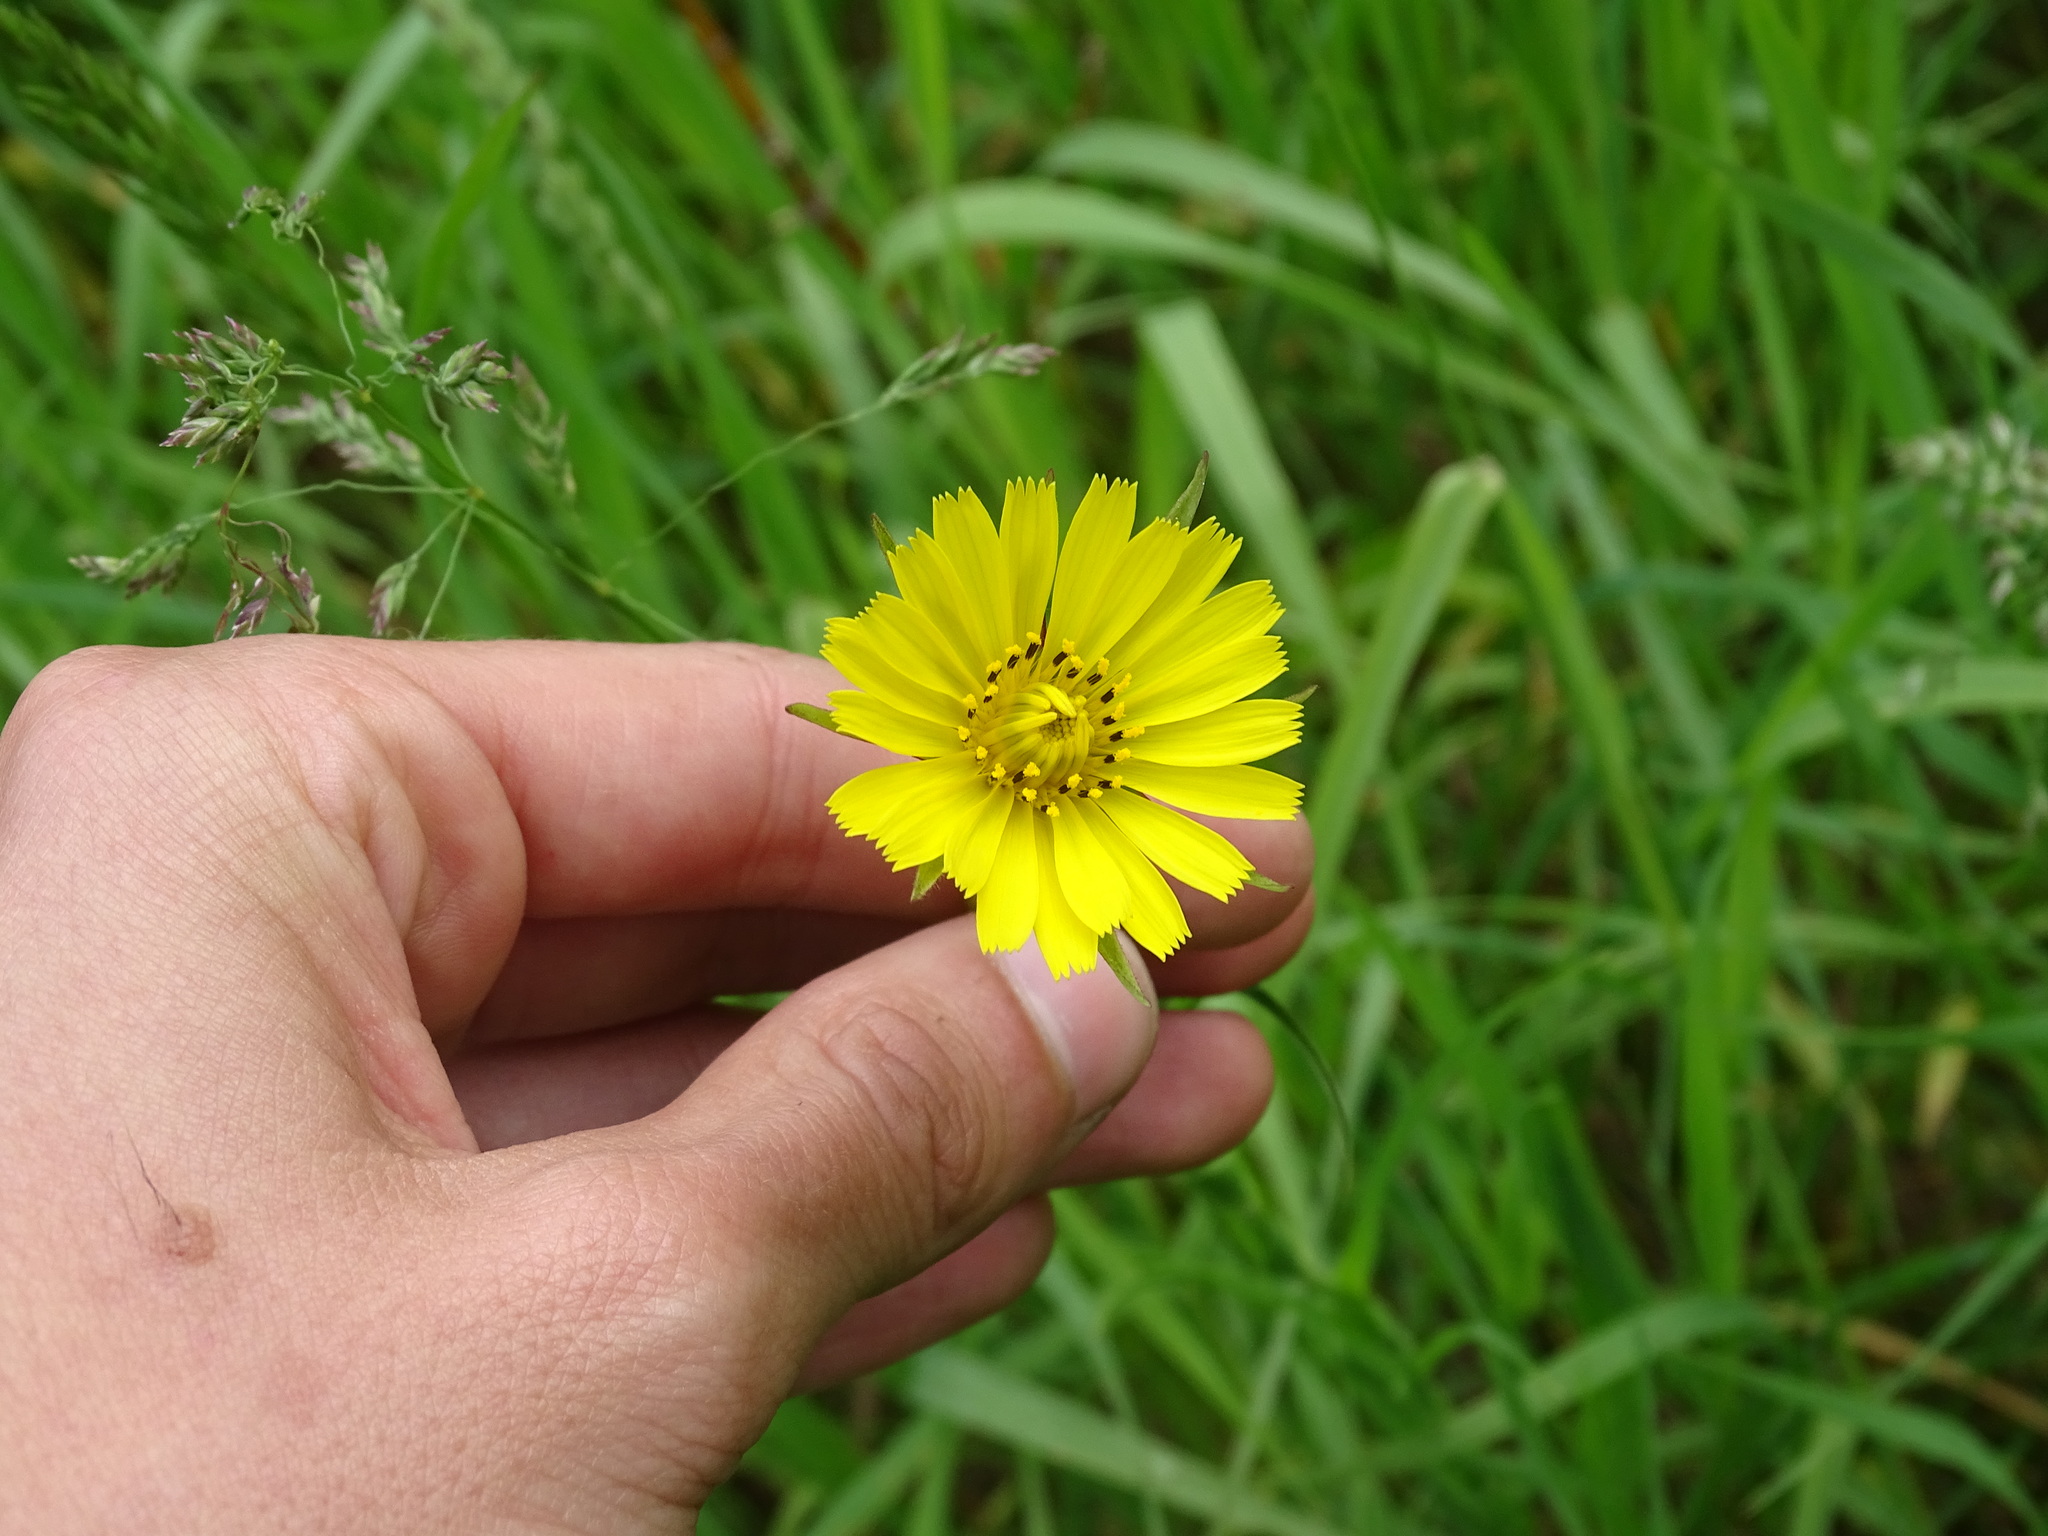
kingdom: Plantae
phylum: Tracheophyta
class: Magnoliopsida
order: Asterales
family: Asteraceae
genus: Tragopogon
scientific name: Tragopogon pratensis
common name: Goat's-beard
